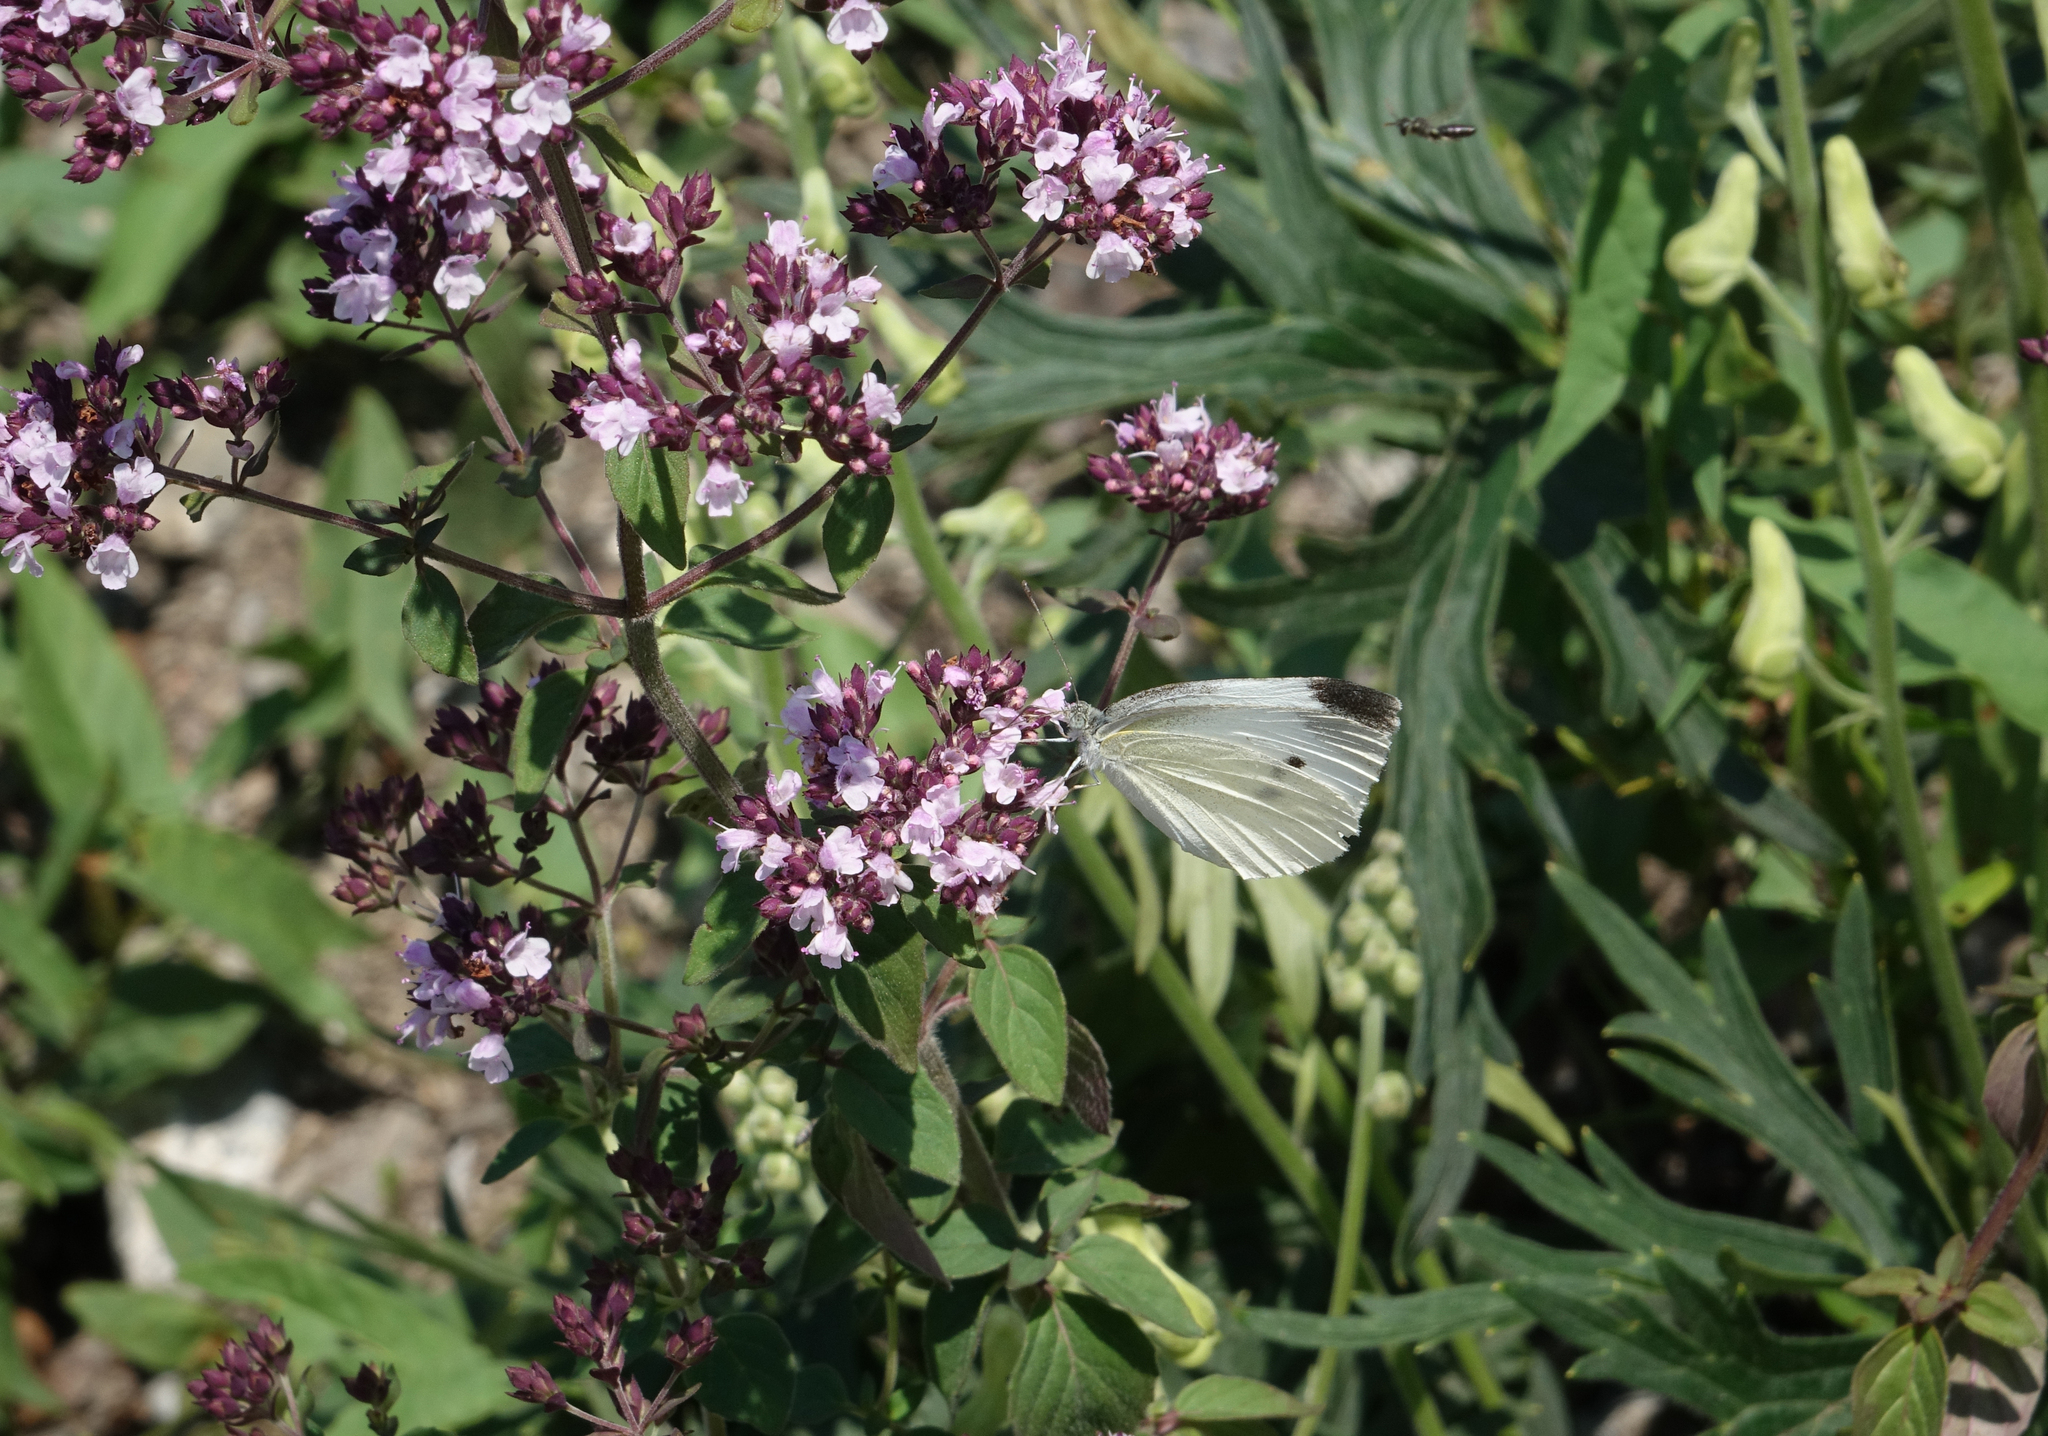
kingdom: Animalia
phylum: Arthropoda
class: Insecta
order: Lepidoptera
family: Pieridae
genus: Pieris
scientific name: Pieris rapae
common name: Small white
